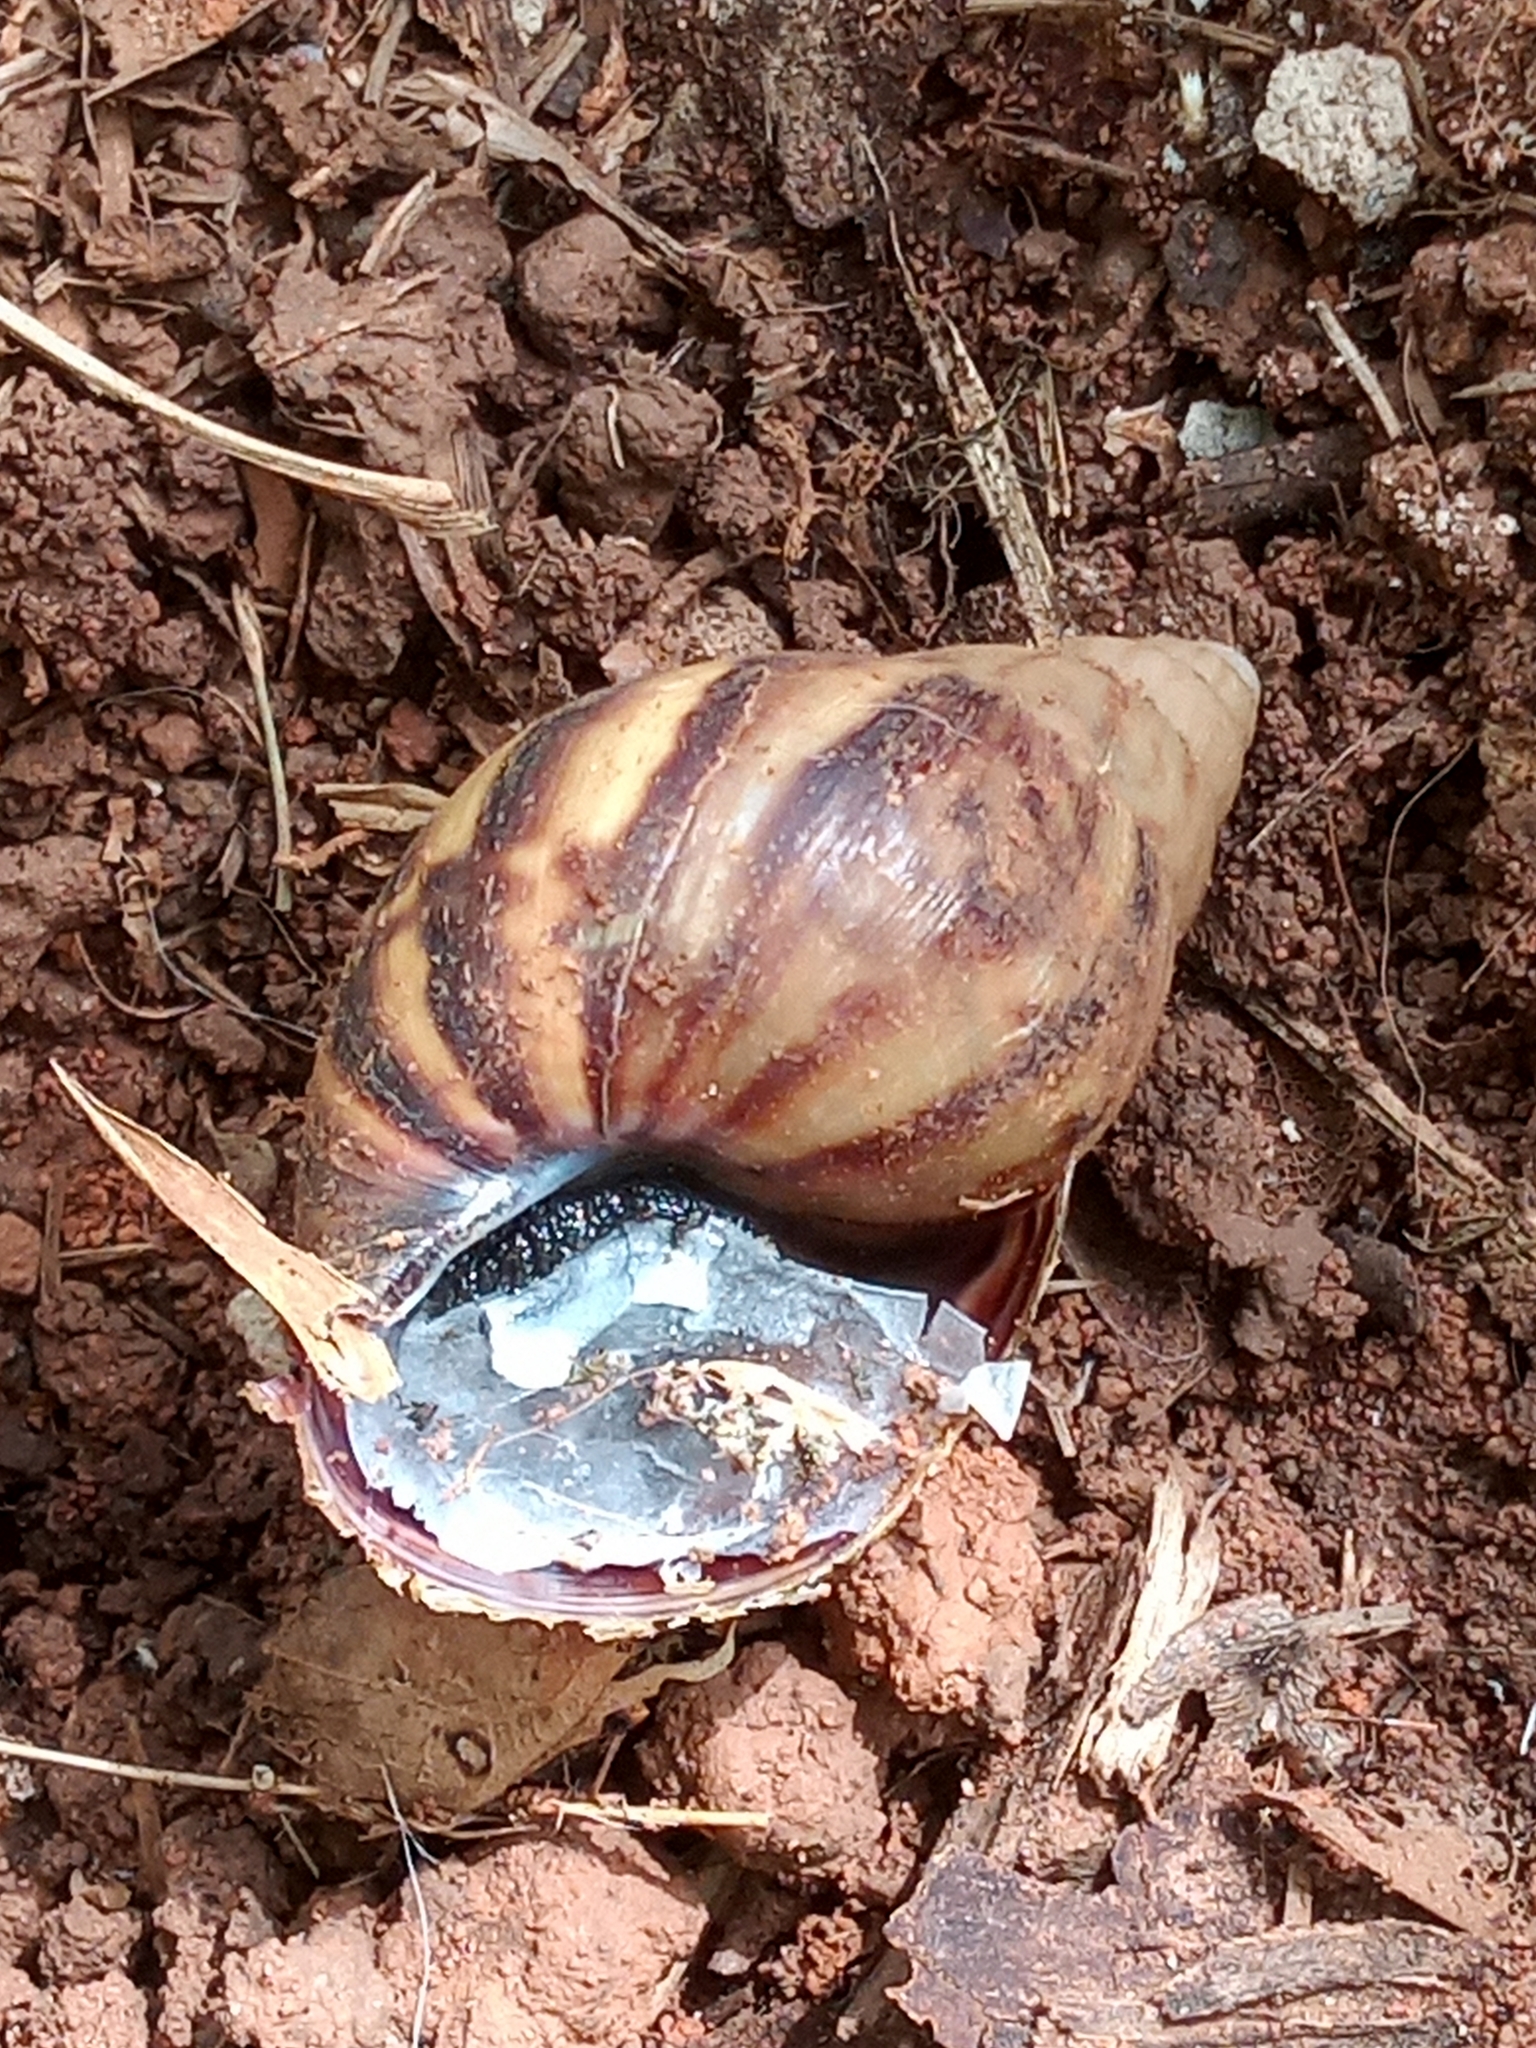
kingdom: Animalia
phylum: Mollusca
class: Gastropoda
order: Stylommatophora
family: Achatinidae
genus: Lissachatina
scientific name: Lissachatina fulica
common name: Giant african snail
